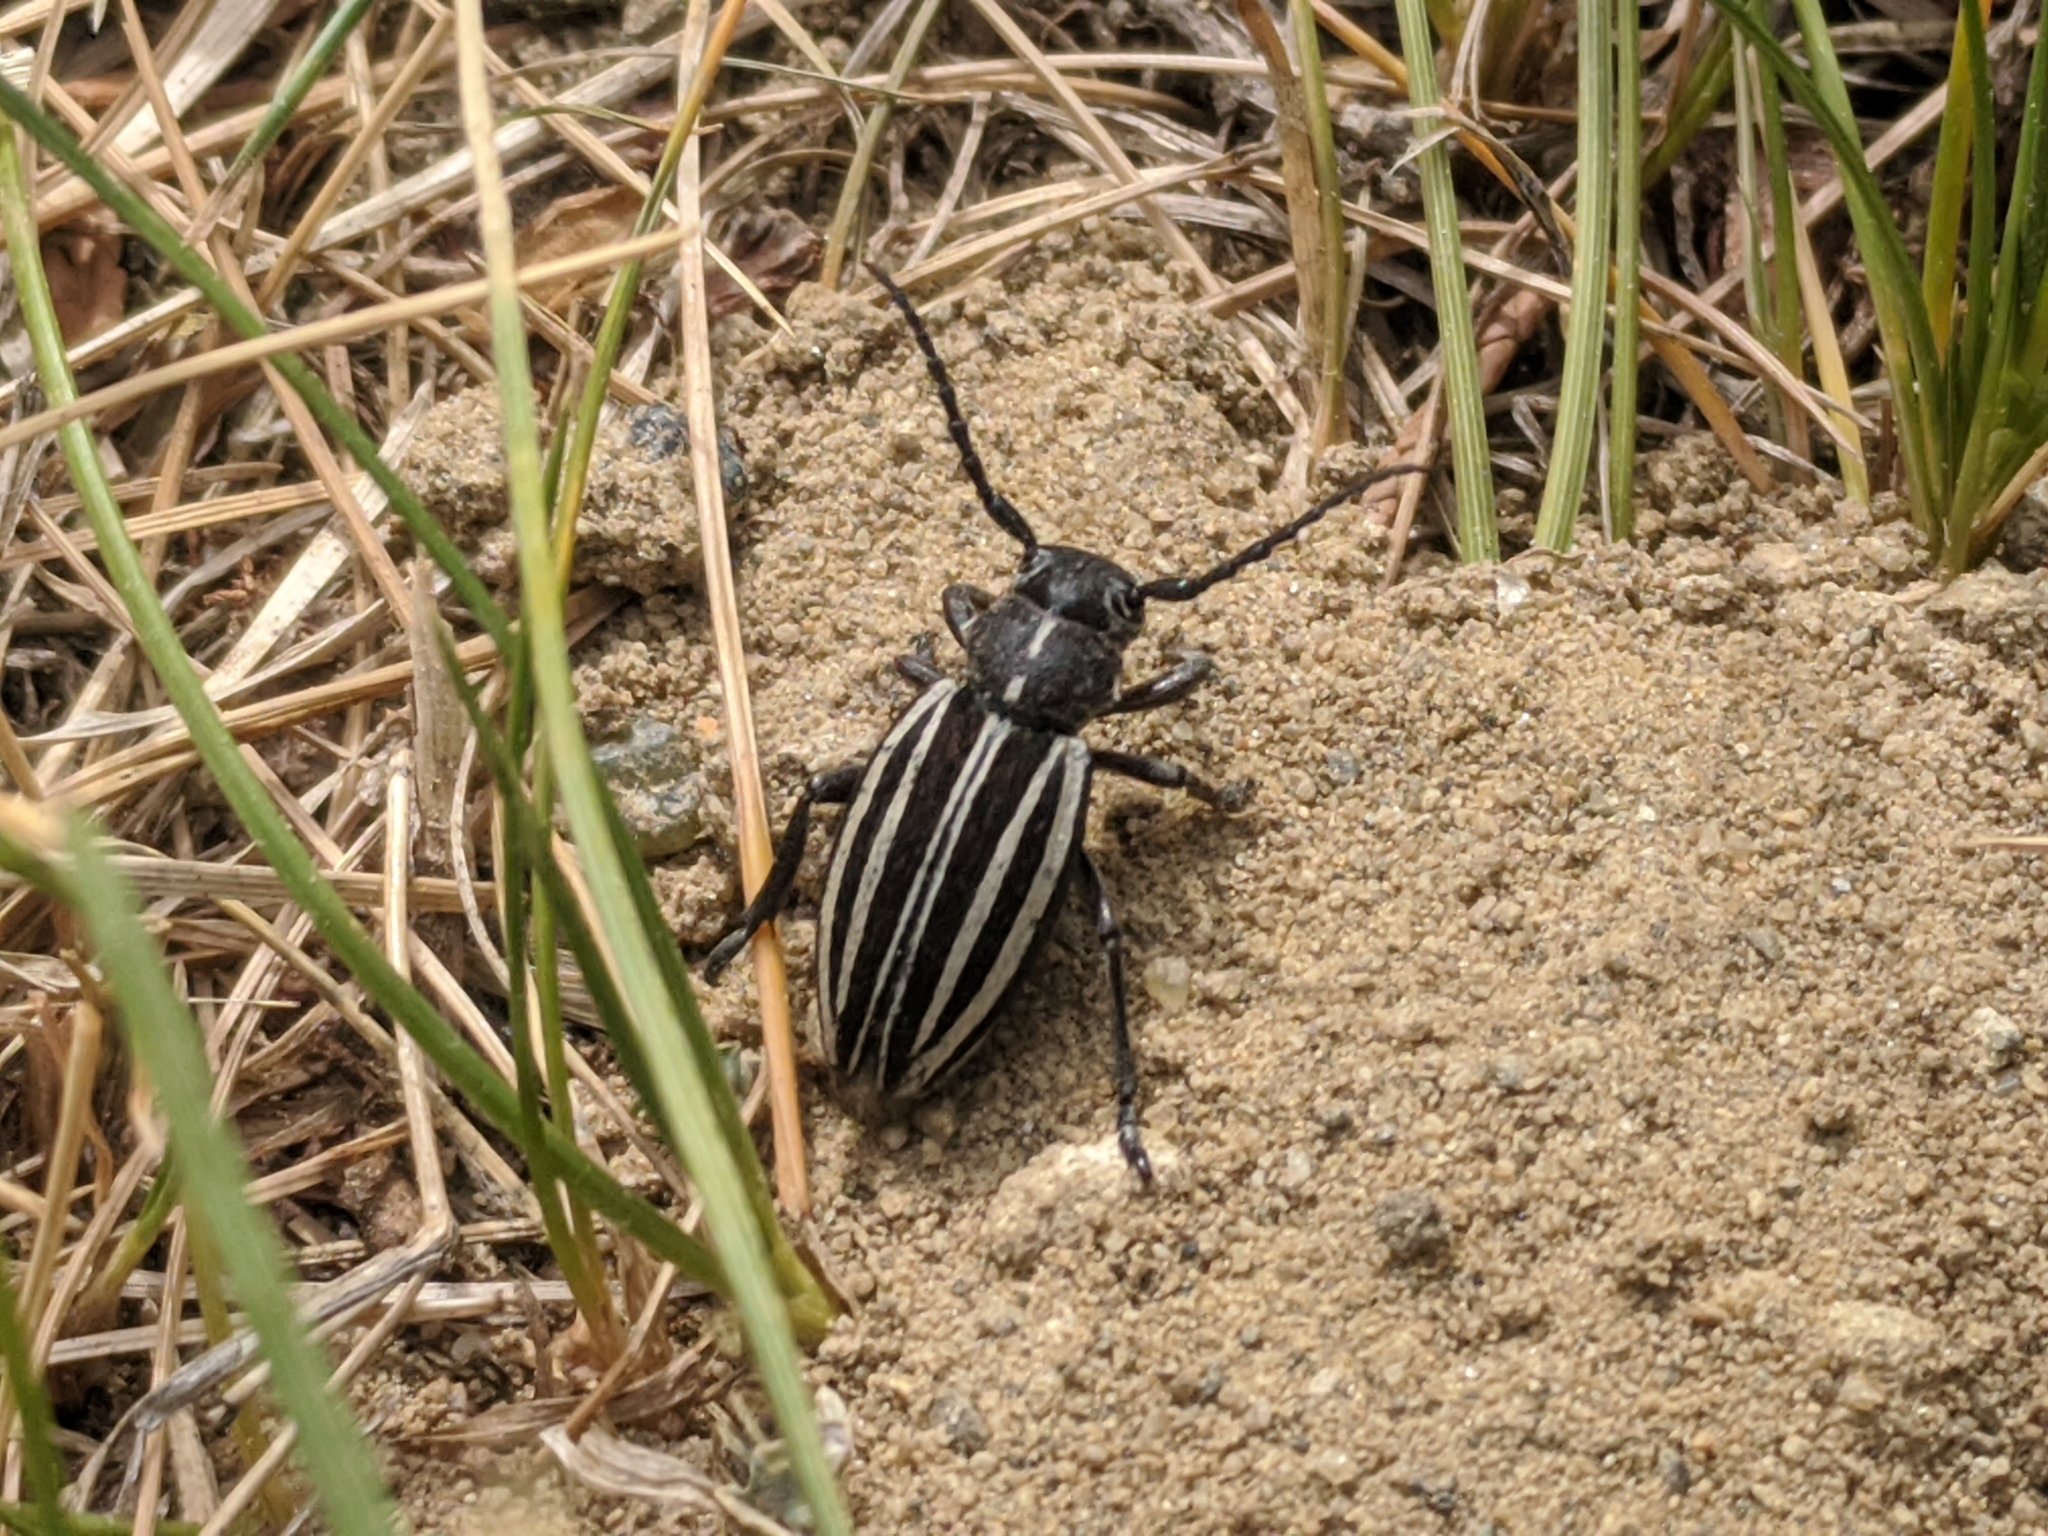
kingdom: Animalia
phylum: Arthropoda
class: Insecta
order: Coleoptera
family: Cerambycidae
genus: Dorcadion
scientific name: Dorcadion scopolii
